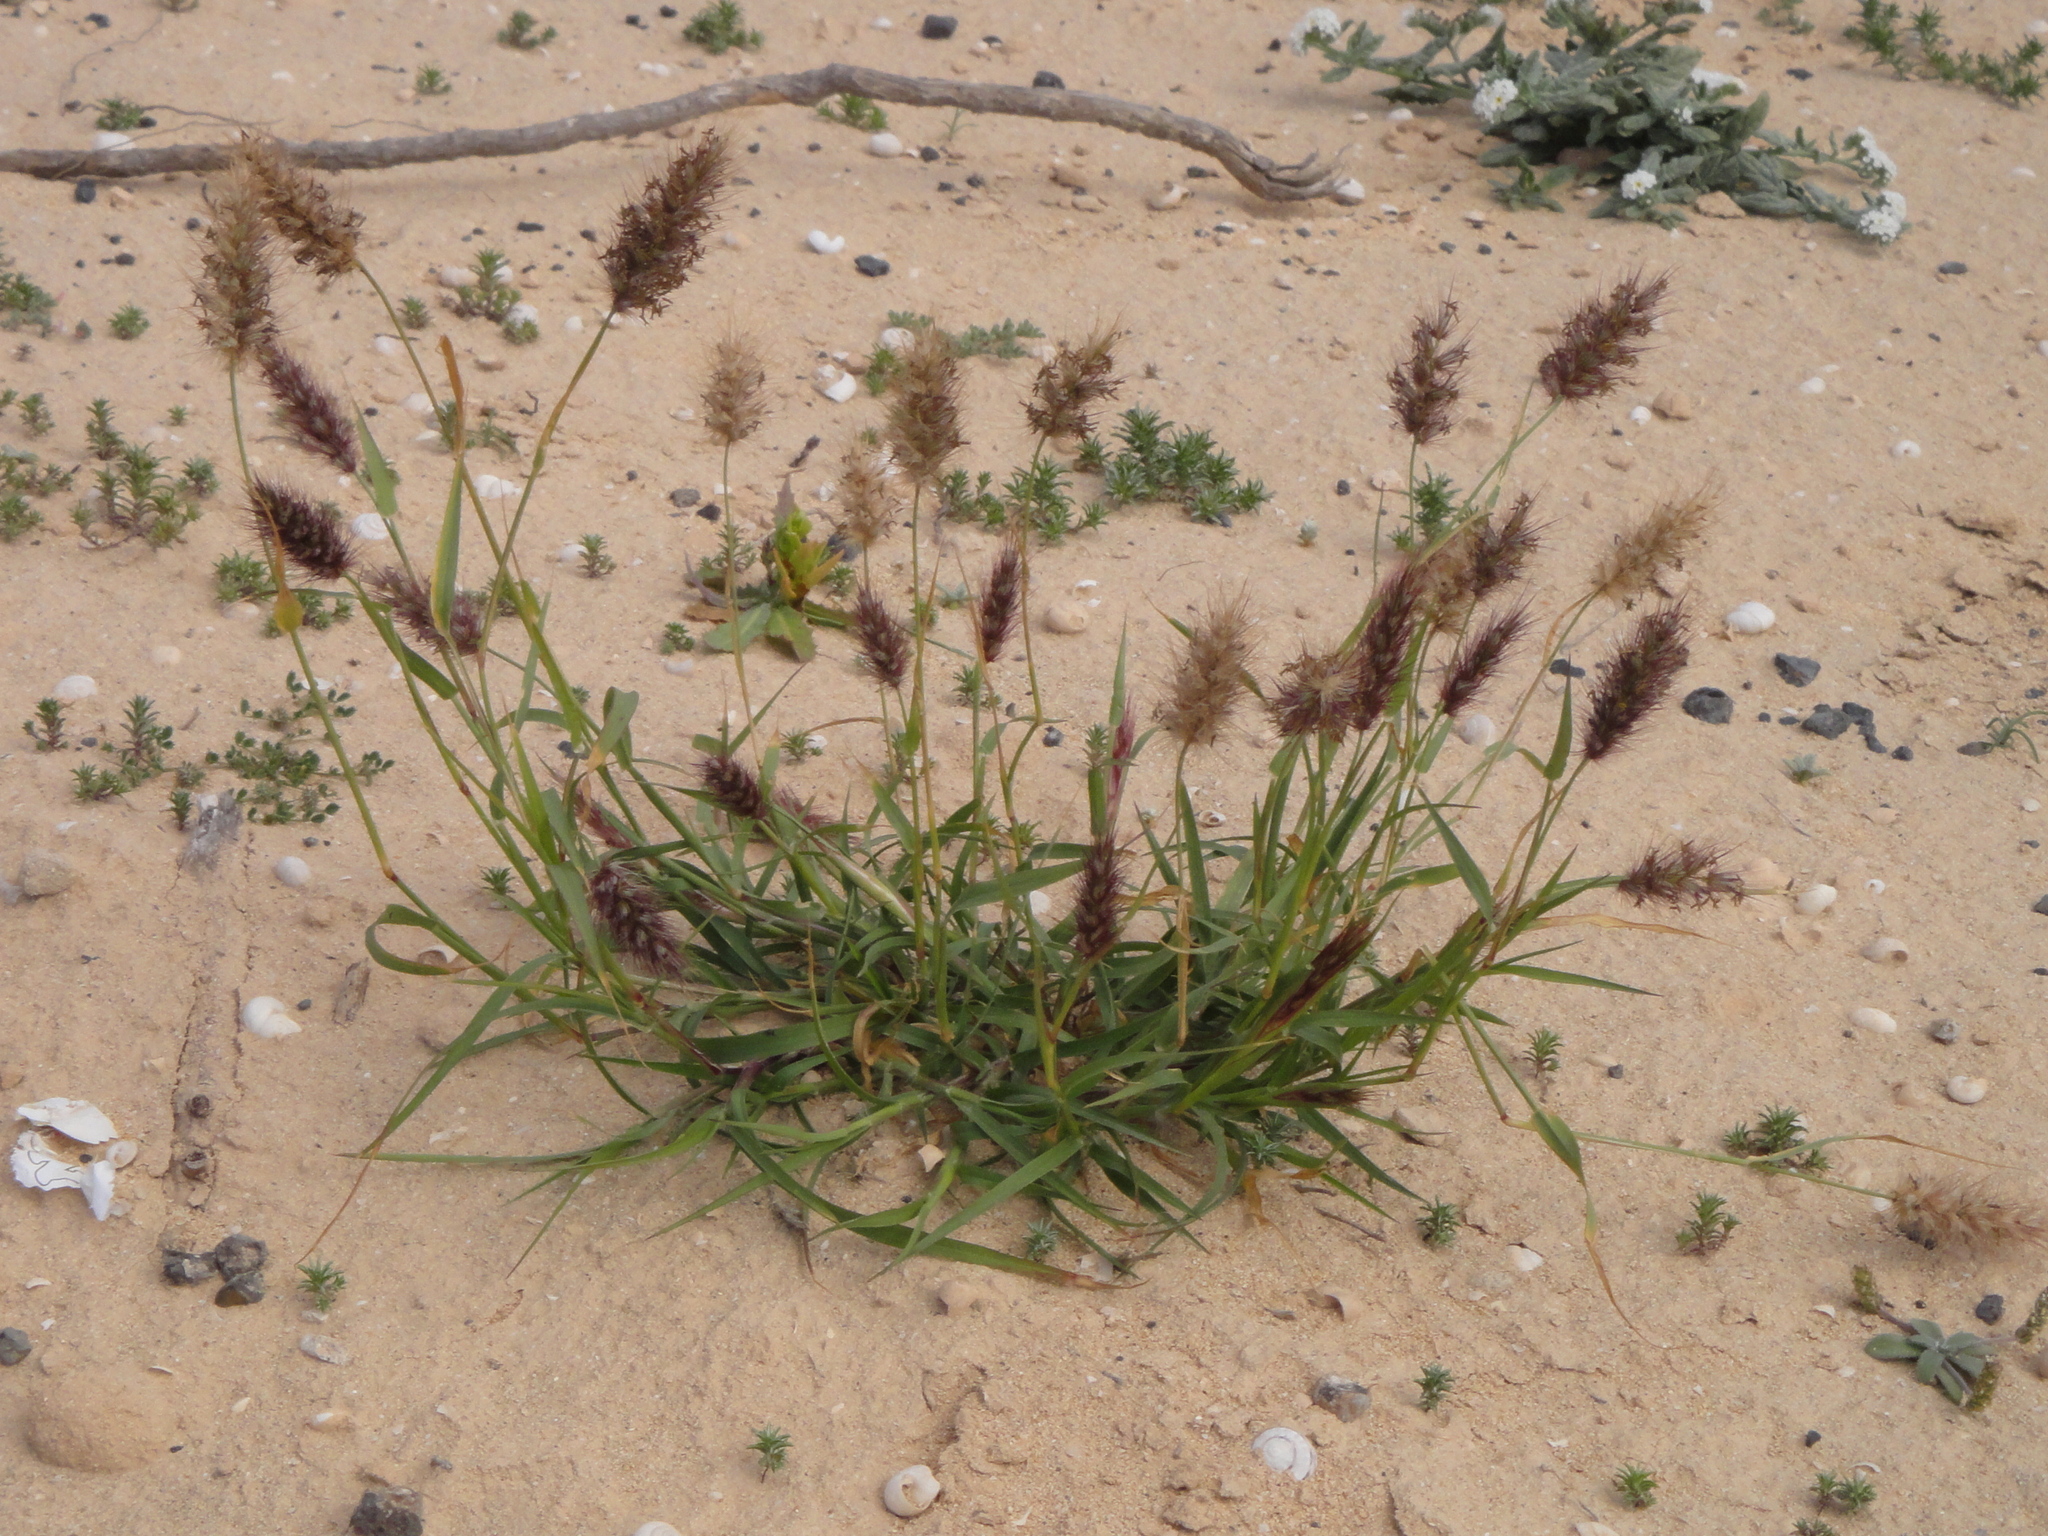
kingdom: Plantae
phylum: Tracheophyta
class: Liliopsida
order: Poales
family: Poaceae
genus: Cenchrus
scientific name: Cenchrus ciliaris
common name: Buffelgrass
